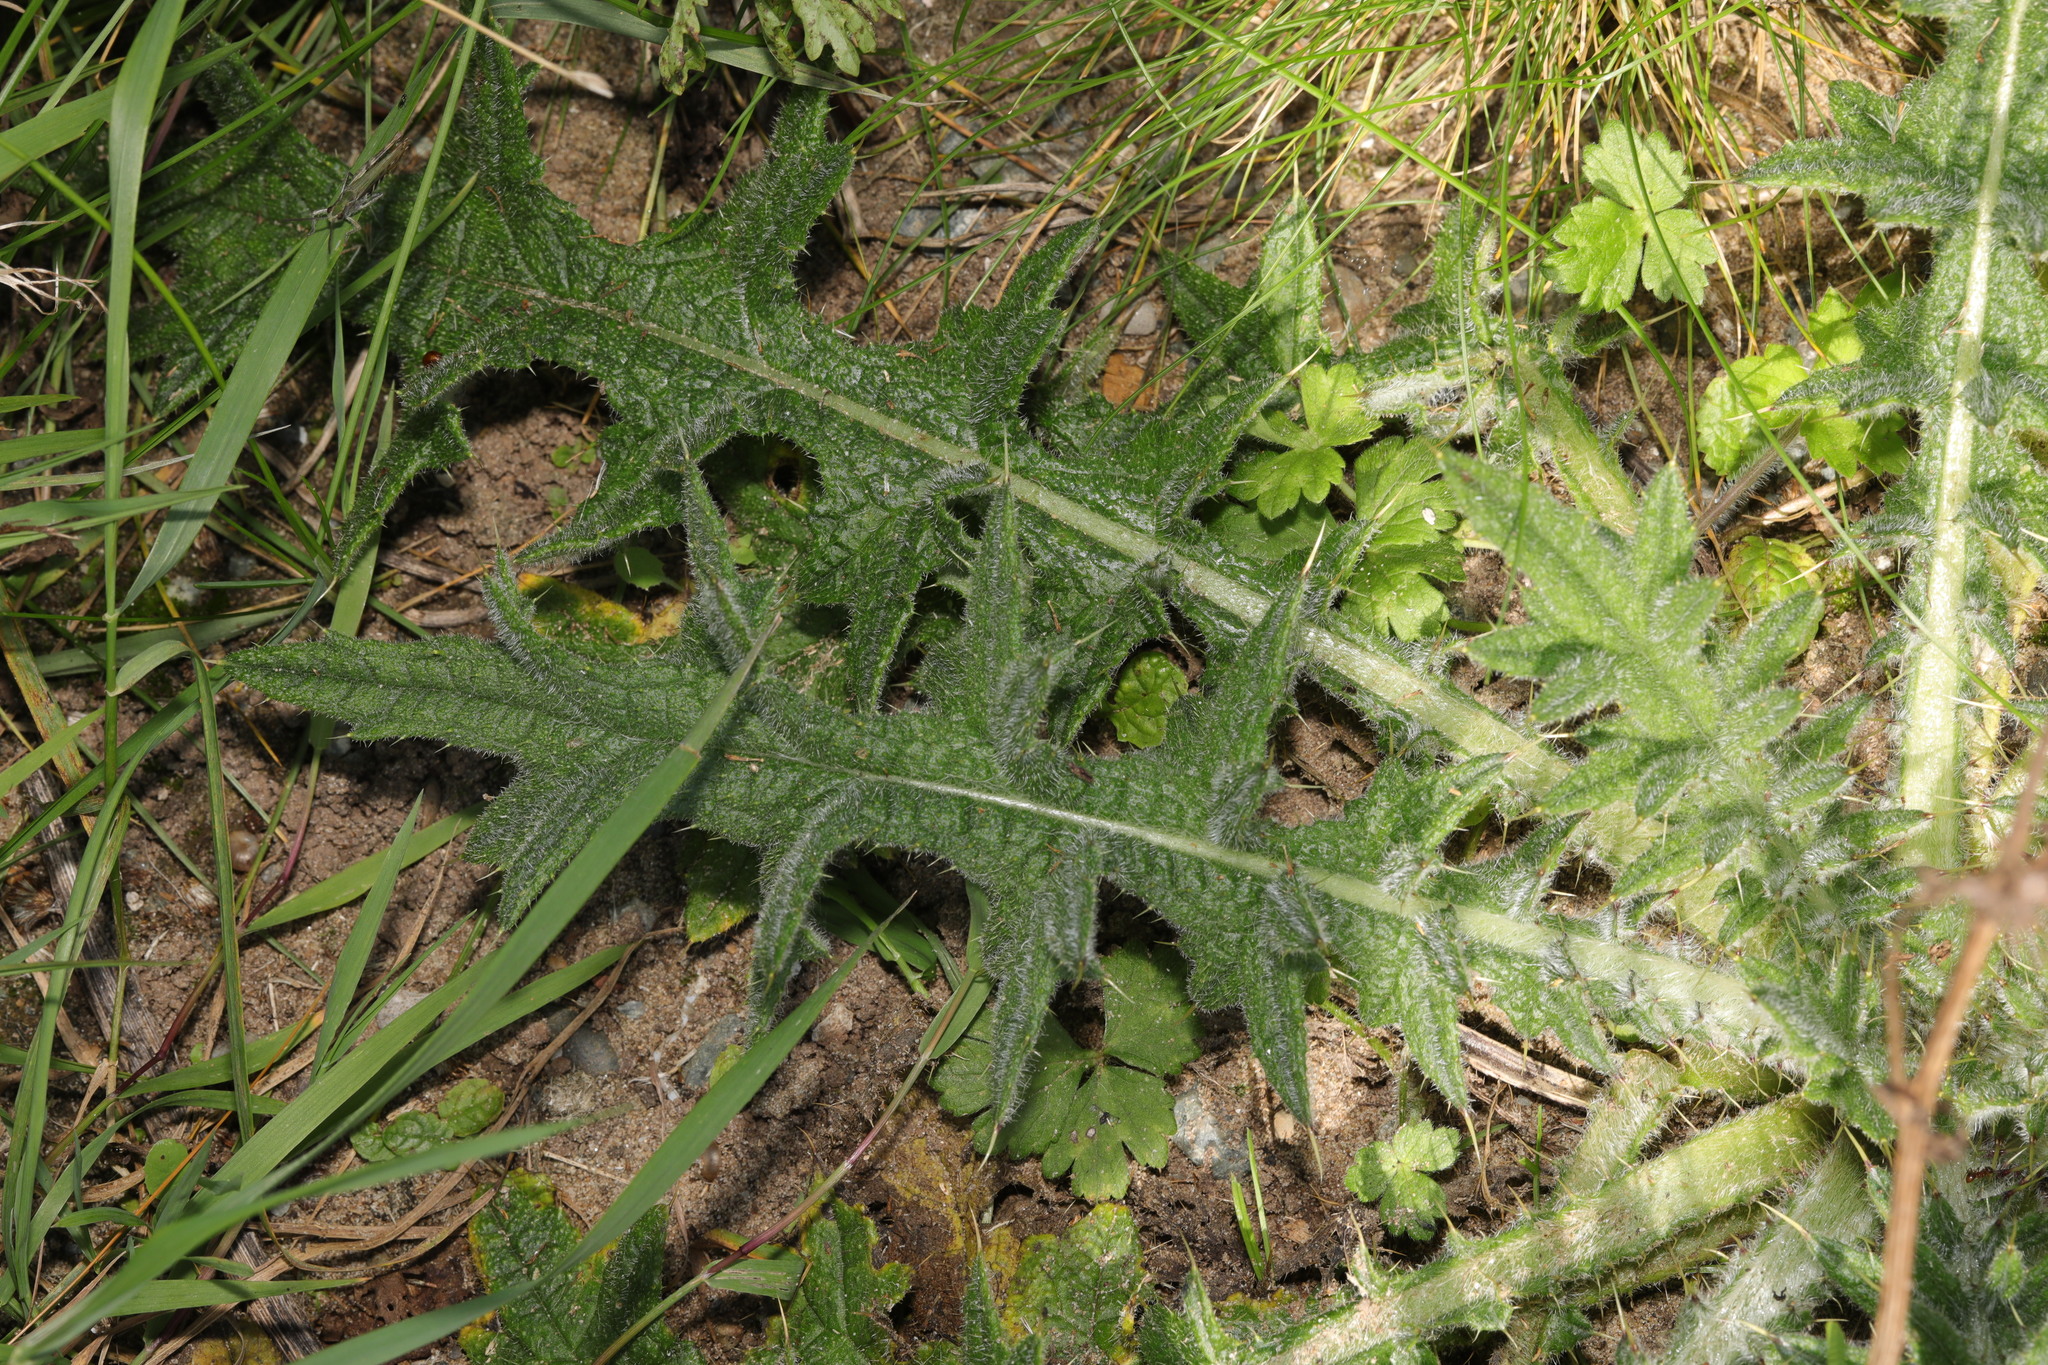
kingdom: Plantae
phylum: Tracheophyta
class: Magnoliopsida
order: Asterales
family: Asteraceae
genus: Cirsium
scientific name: Cirsium vulgare
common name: Bull thistle
